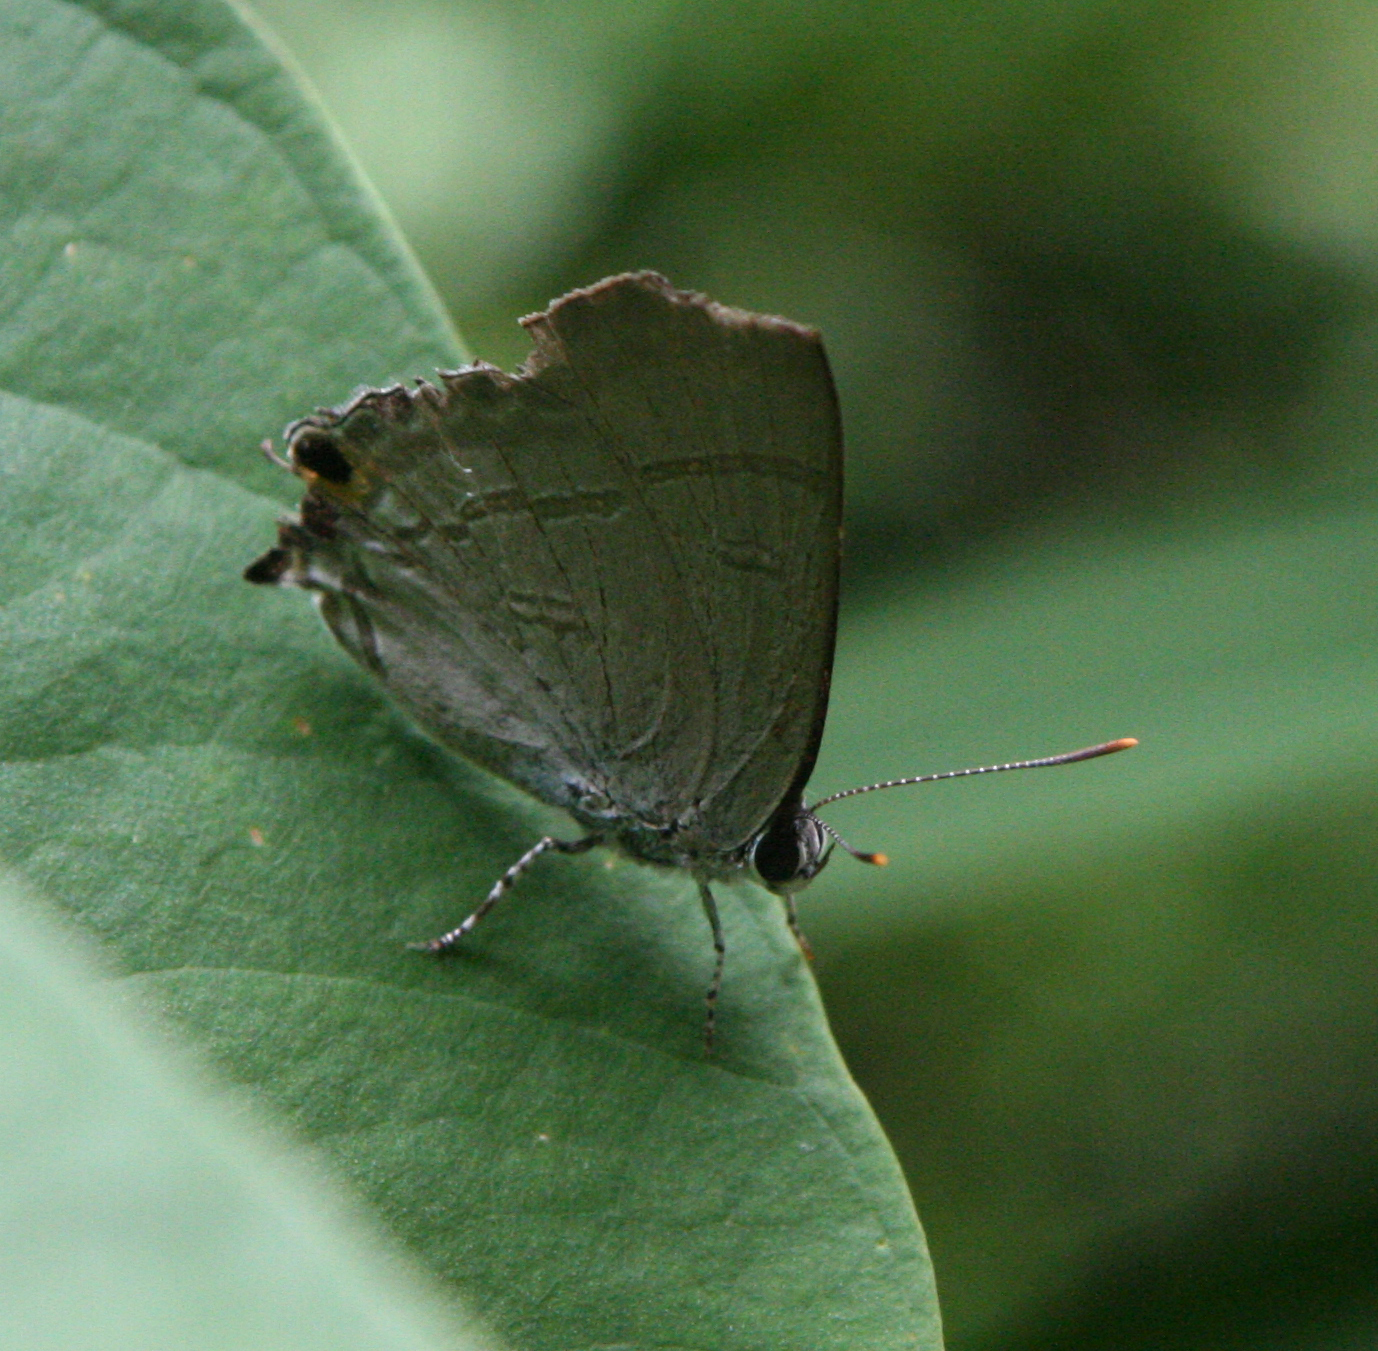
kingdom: Animalia
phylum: Arthropoda
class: Insecta
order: Lepidoptera
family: Lycaenidae
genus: Hypolycaena
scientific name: Hypolycaena erylus
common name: Common tit
